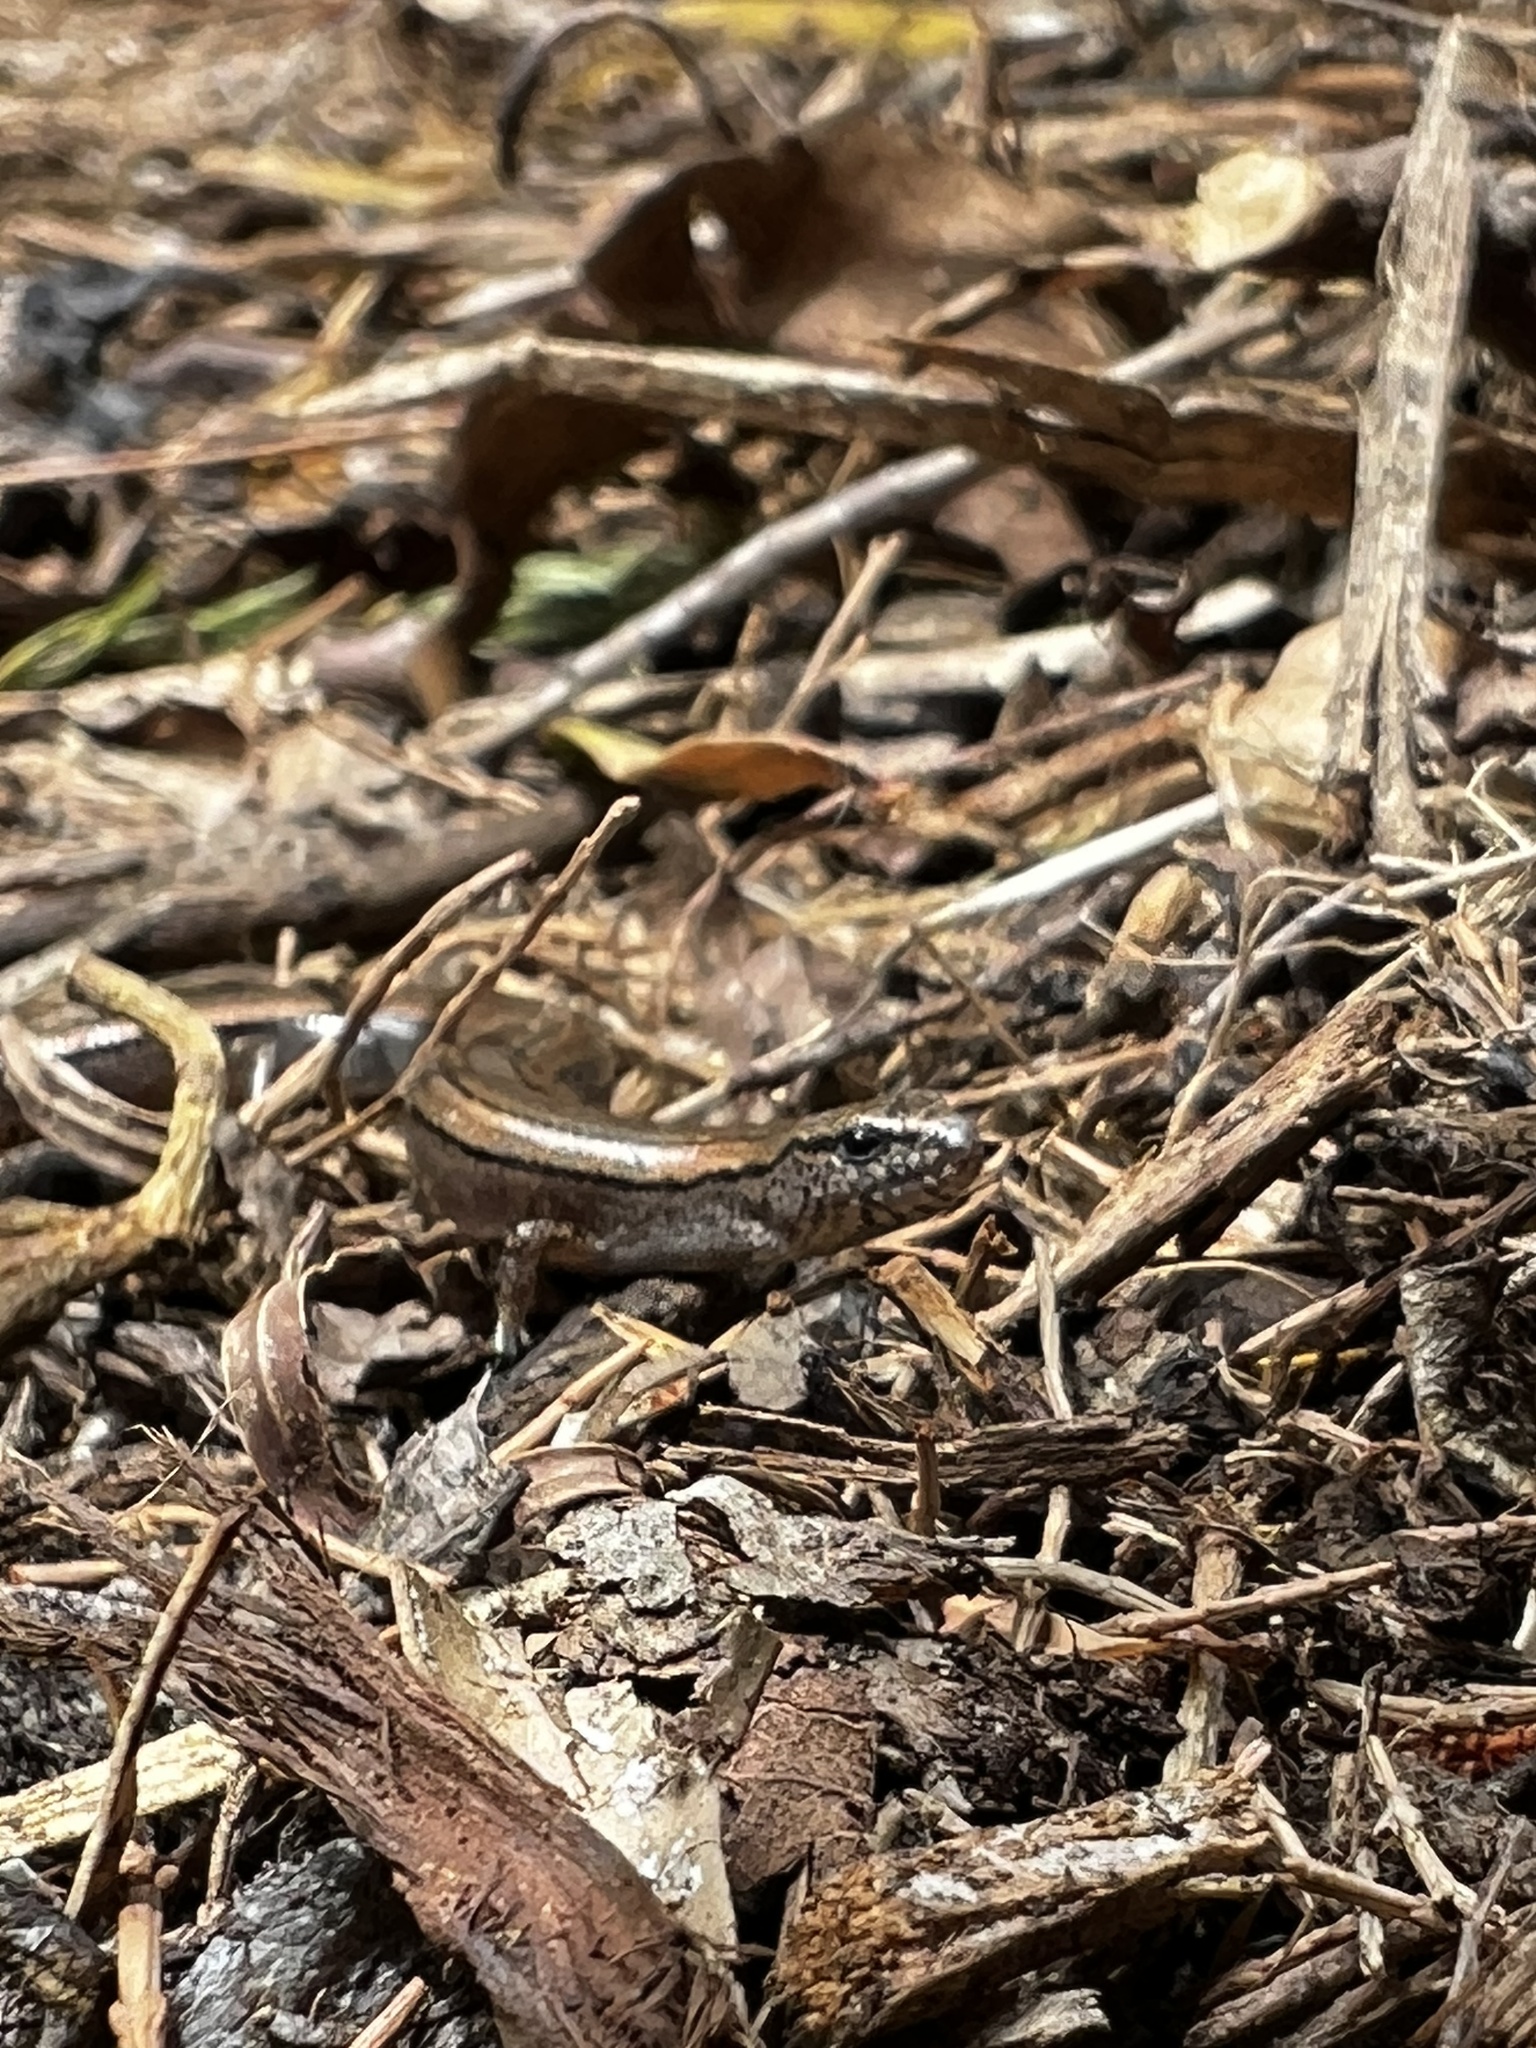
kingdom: Animalia
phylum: Chordata
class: Squamata
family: Scincidae
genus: Hemiergis
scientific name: Hemiergis decresiensis
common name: Three-toed earless skink
